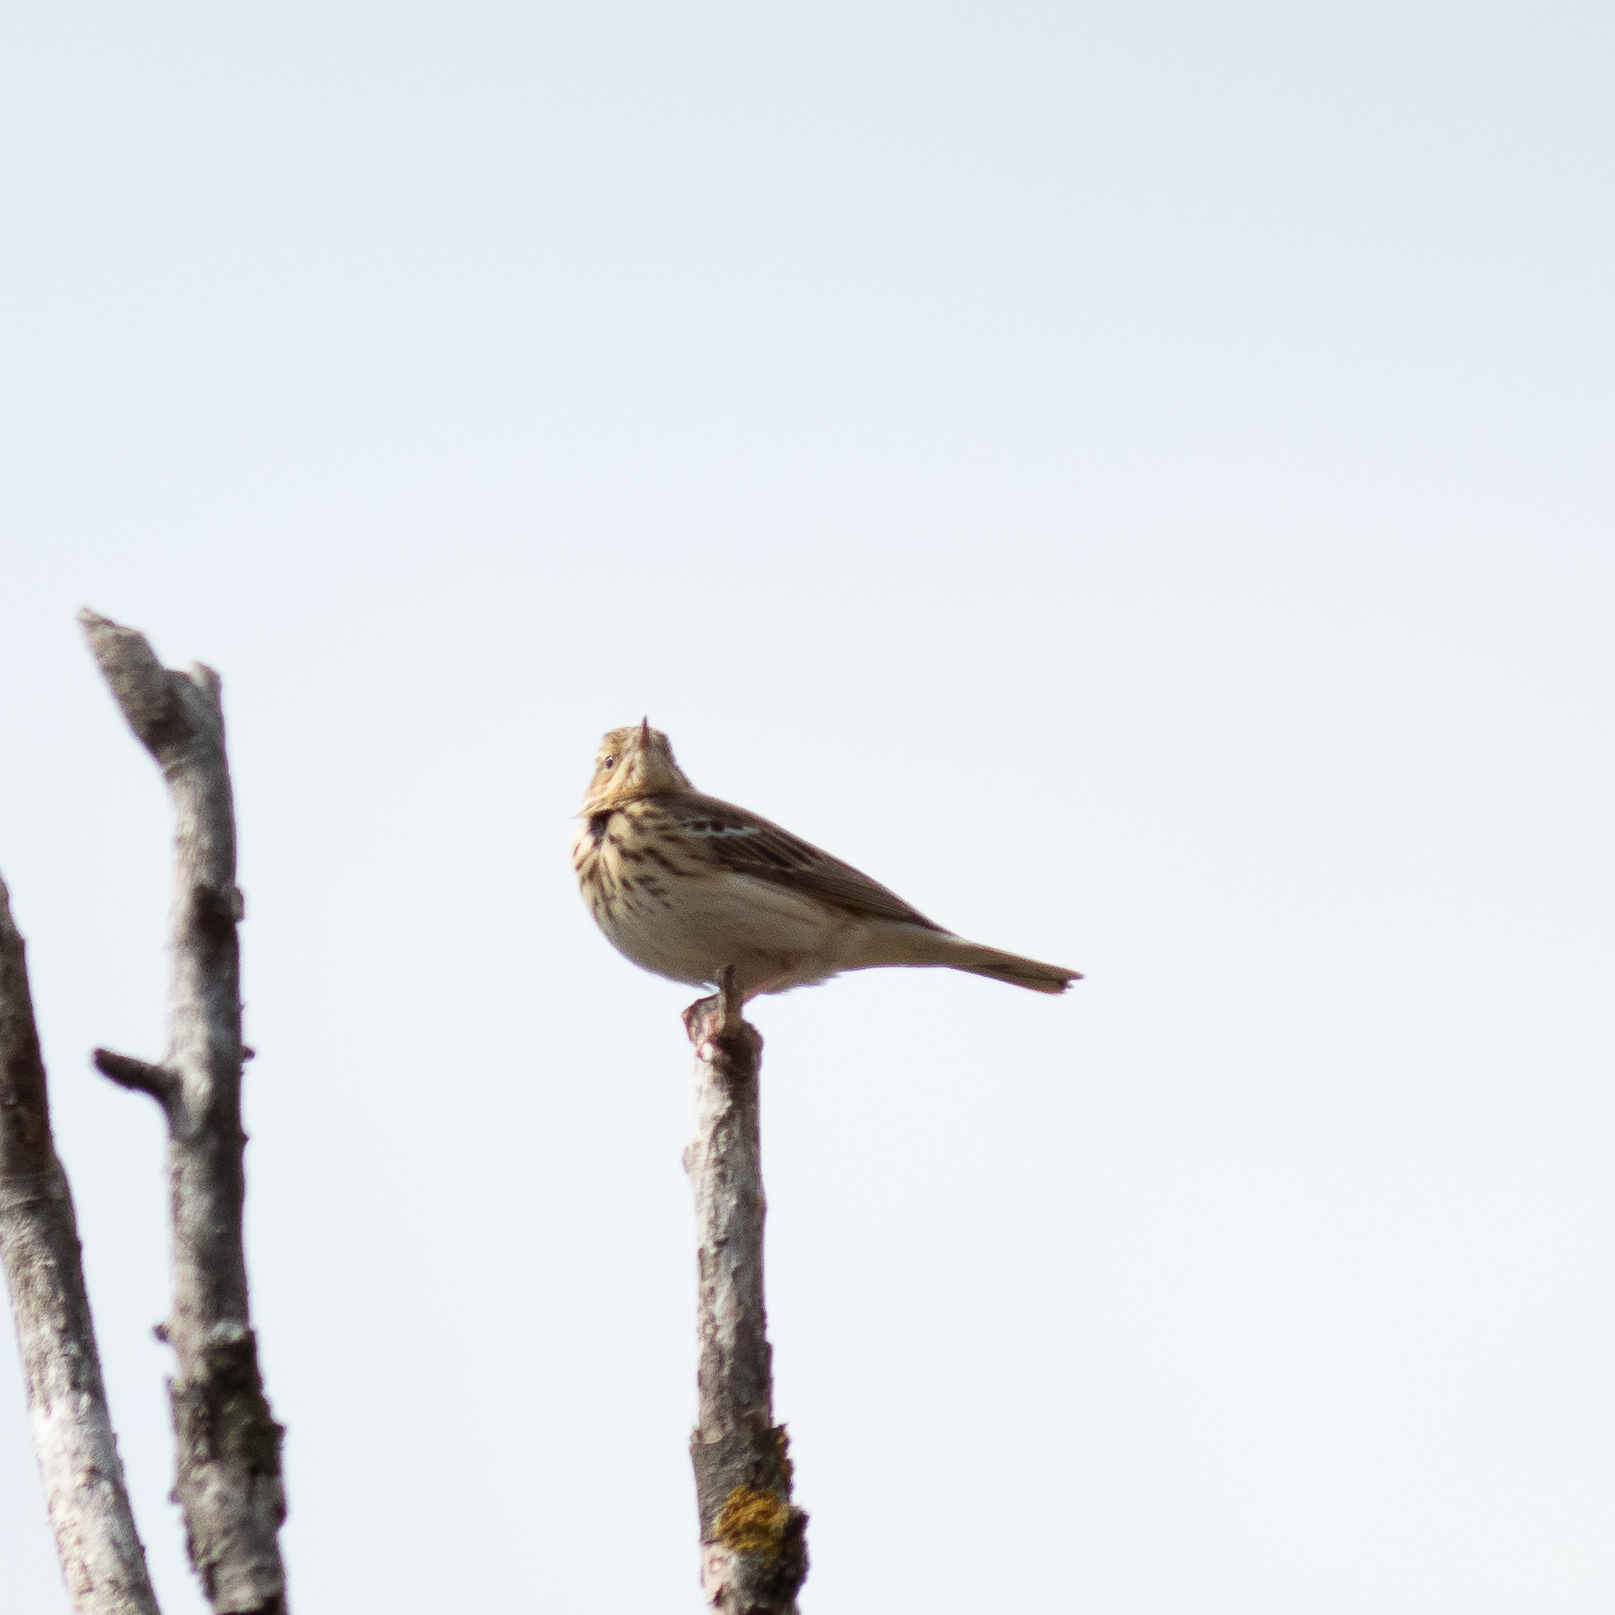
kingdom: Animalia
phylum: Chordata
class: Aves
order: Passeriformes
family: Motacillidae
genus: Anthus
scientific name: Anthus trivialis
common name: Tree pipit
